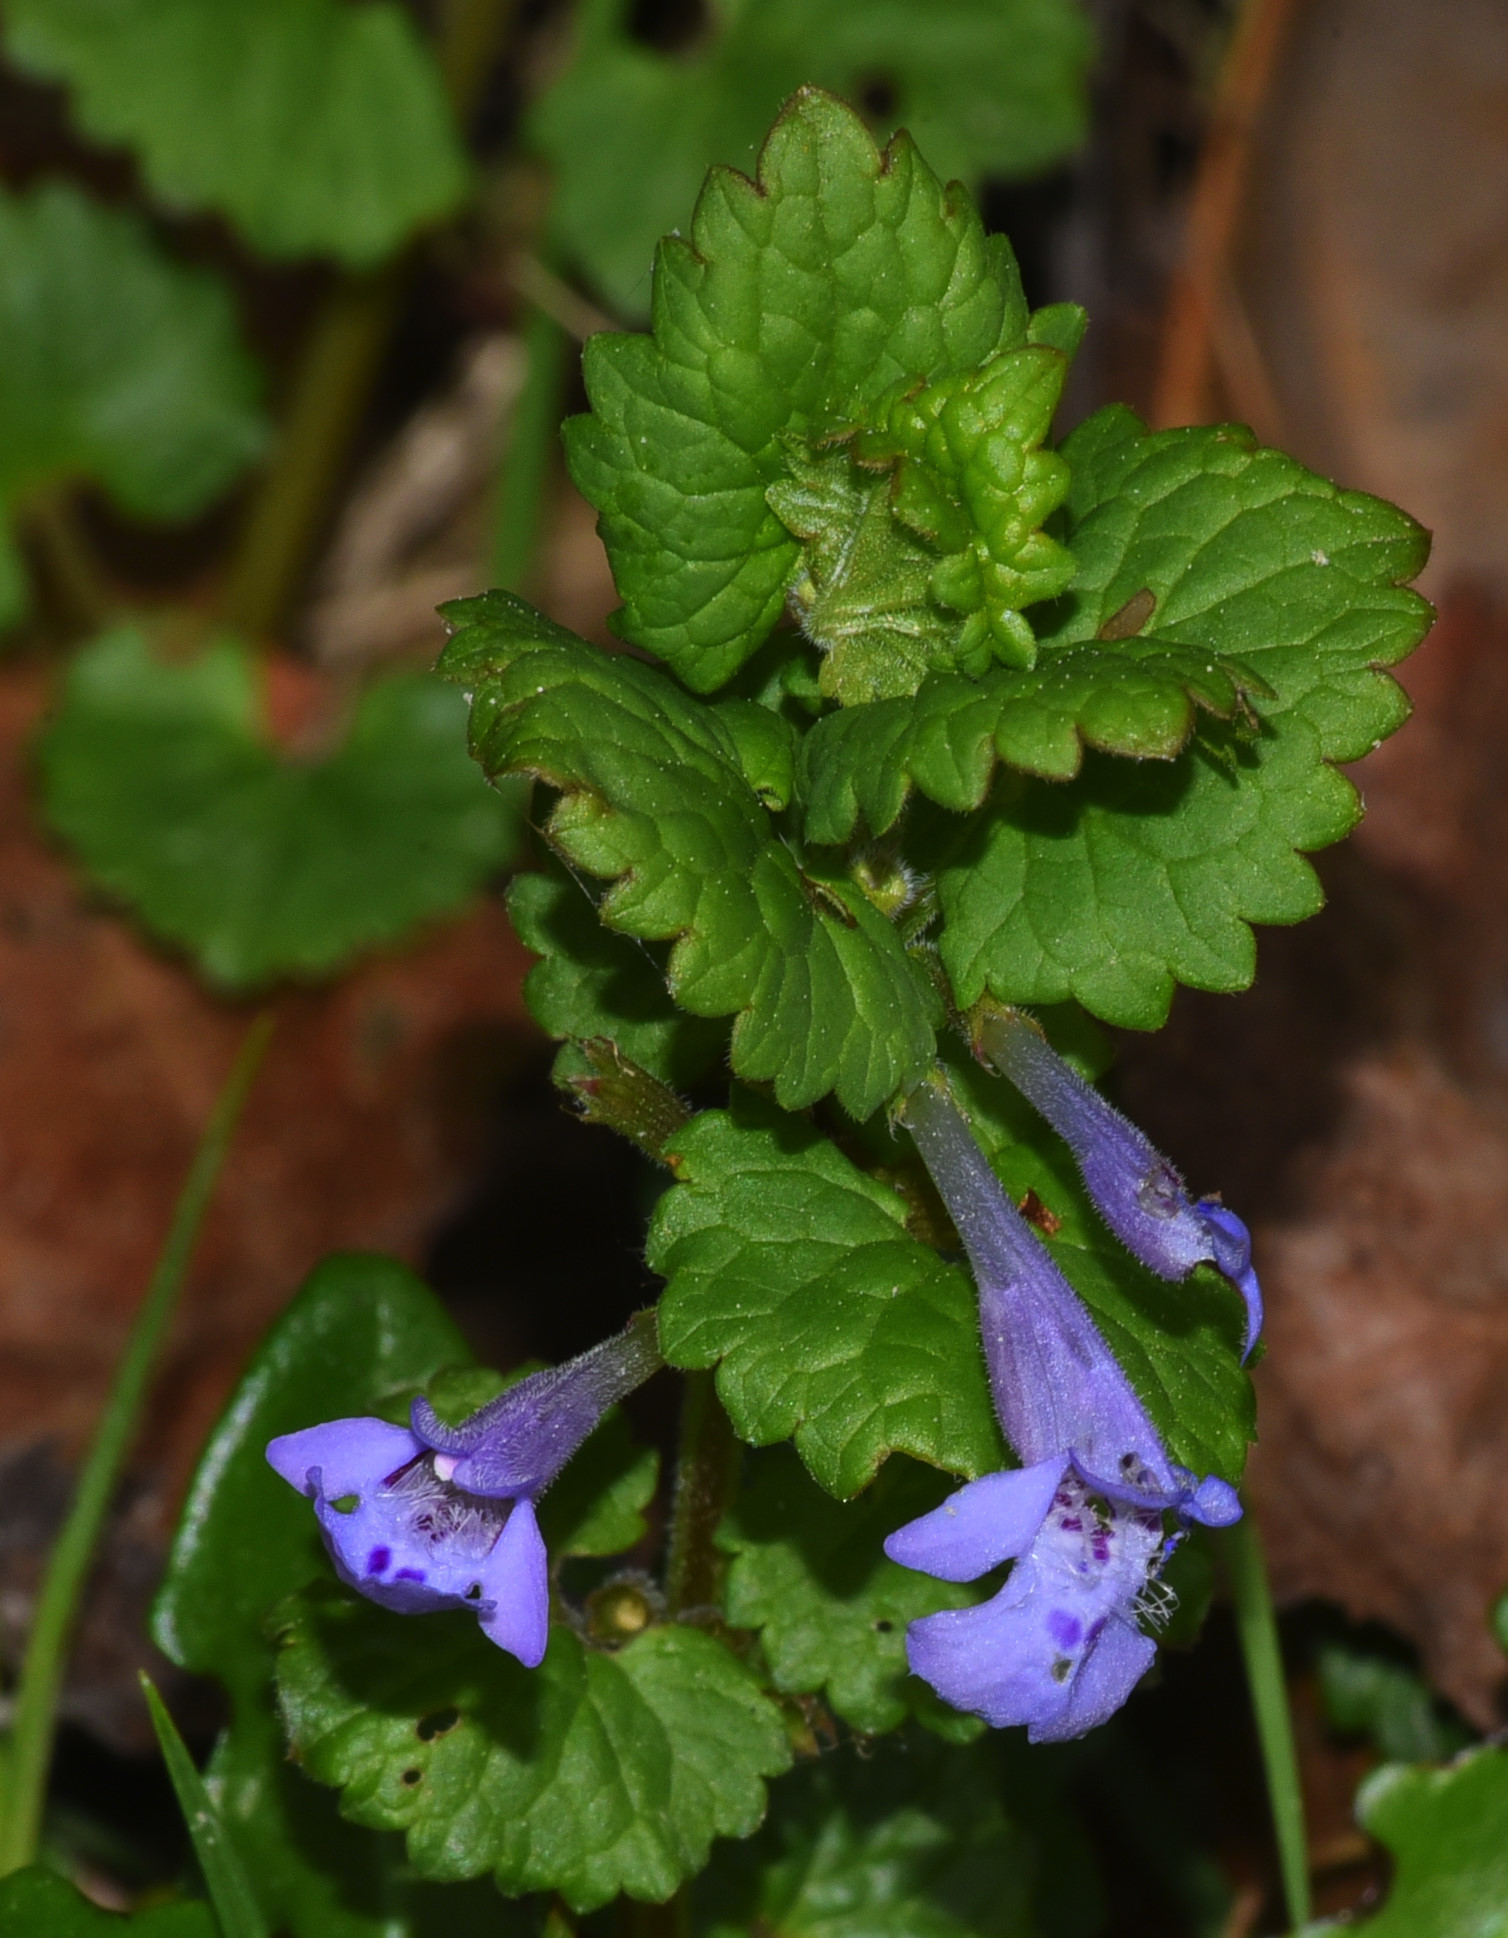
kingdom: Plantae
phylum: Tracheophyta
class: Magnoliopsida
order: Lamiales
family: Lamiaceae
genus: Glechoma
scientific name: Glechoma hederacea
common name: Ground ivy
